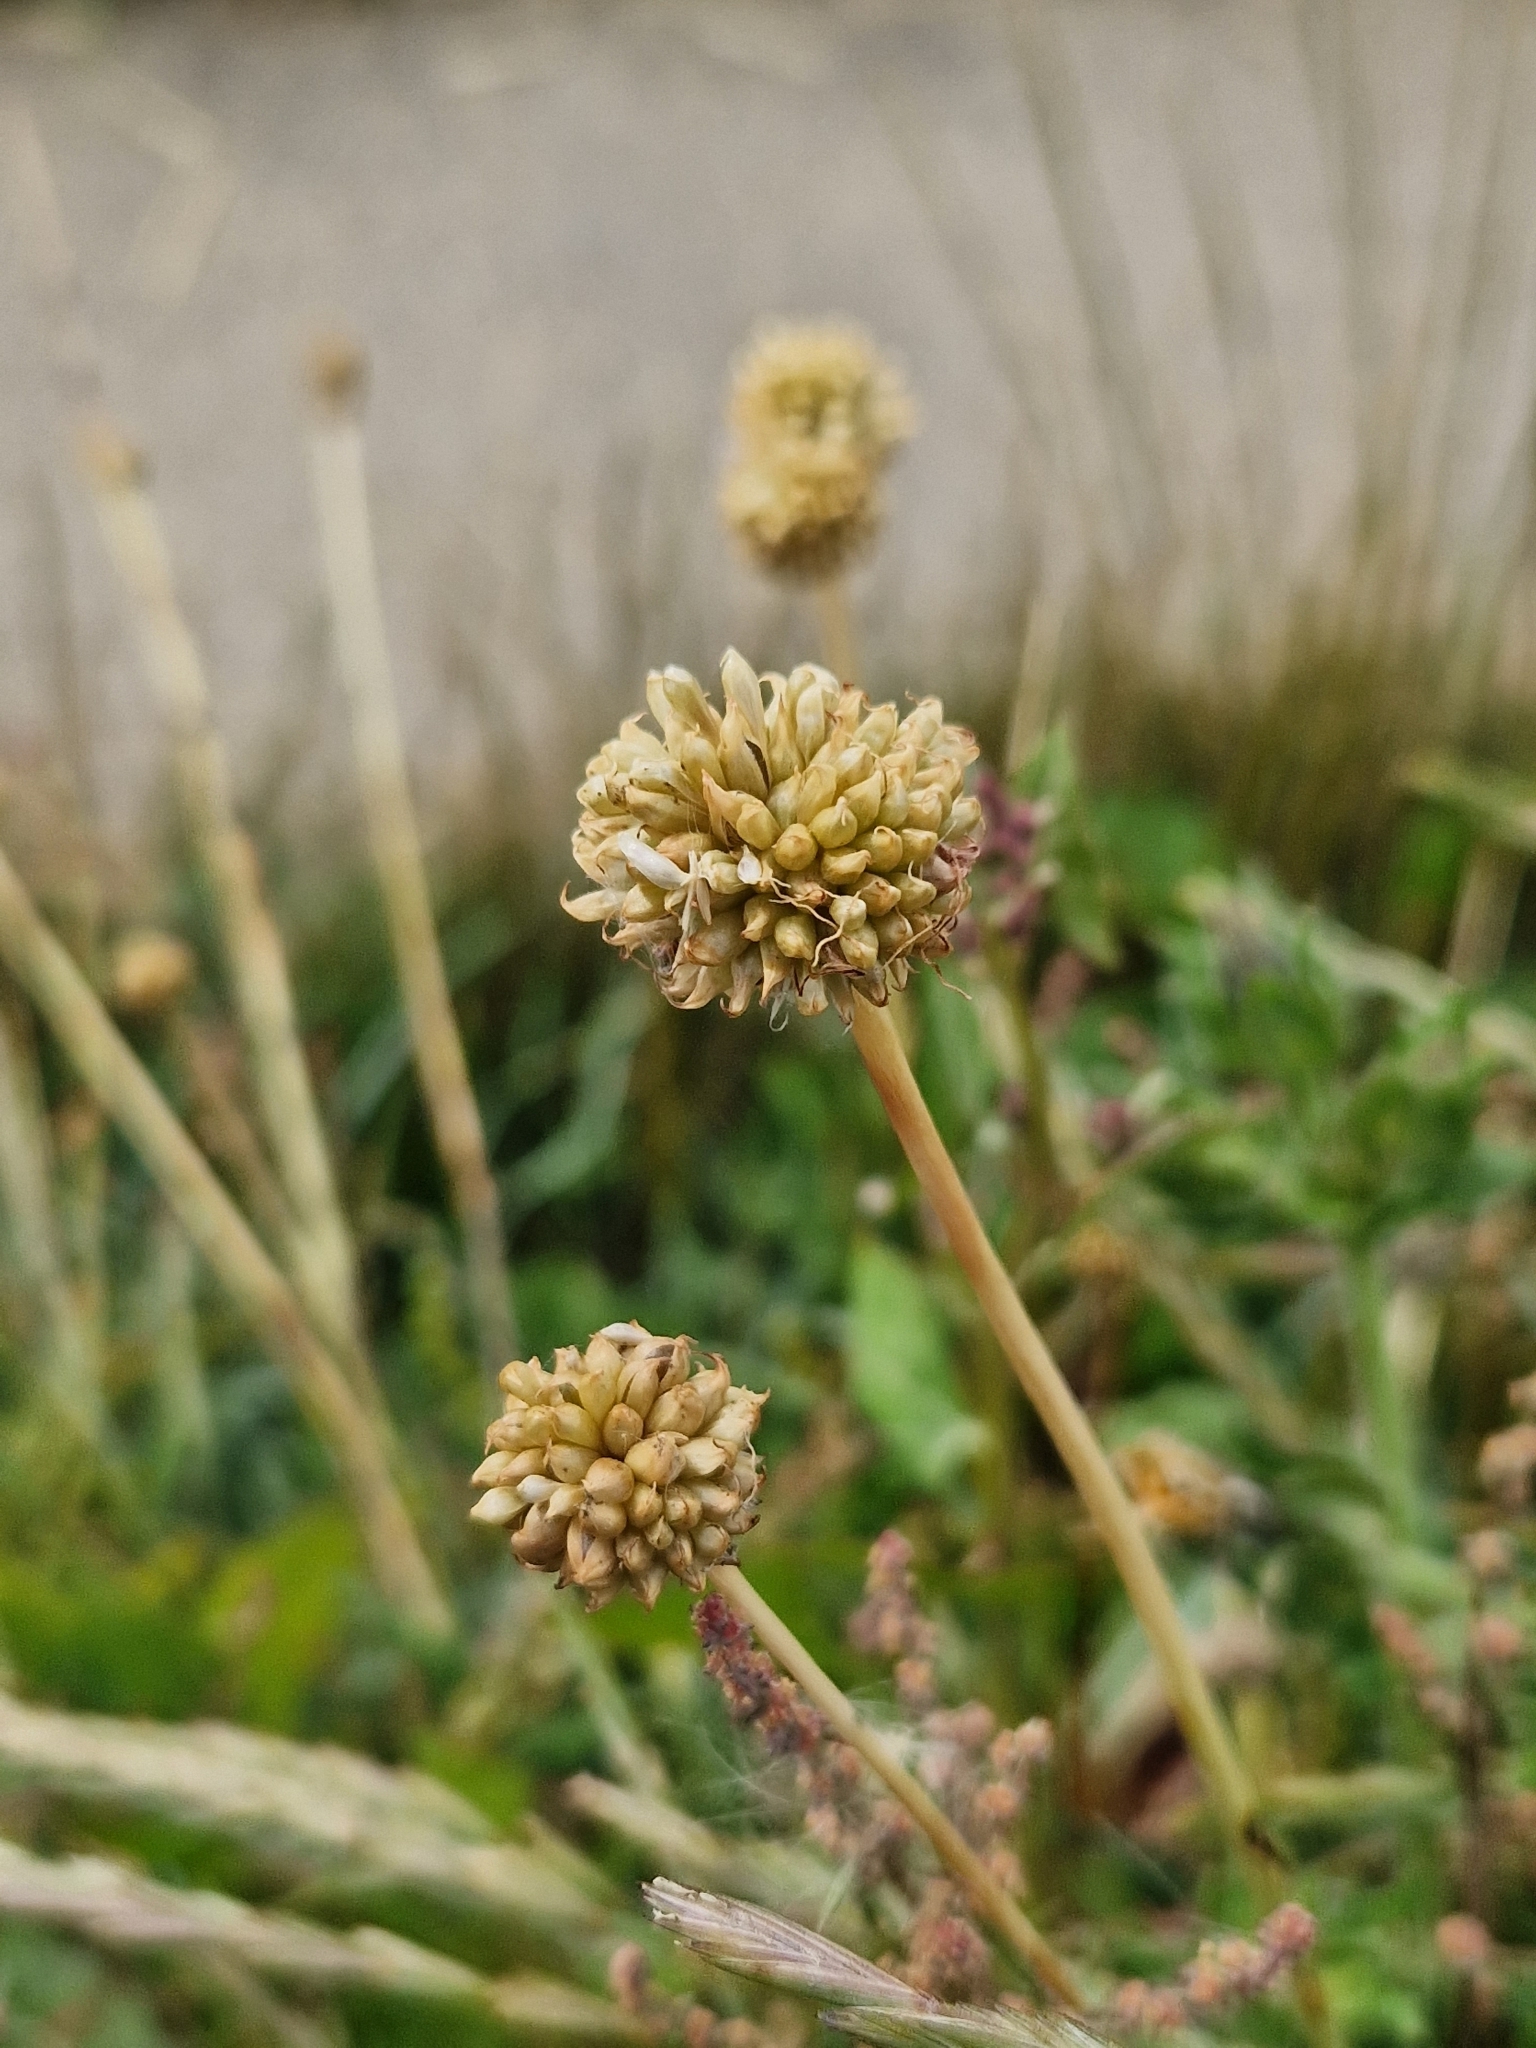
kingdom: Plantae
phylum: Tracheophyta
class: Liliopsida
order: Asparagales
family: Amaryllidaceae
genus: Allium
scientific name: Allium vineale
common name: Crow garlic
